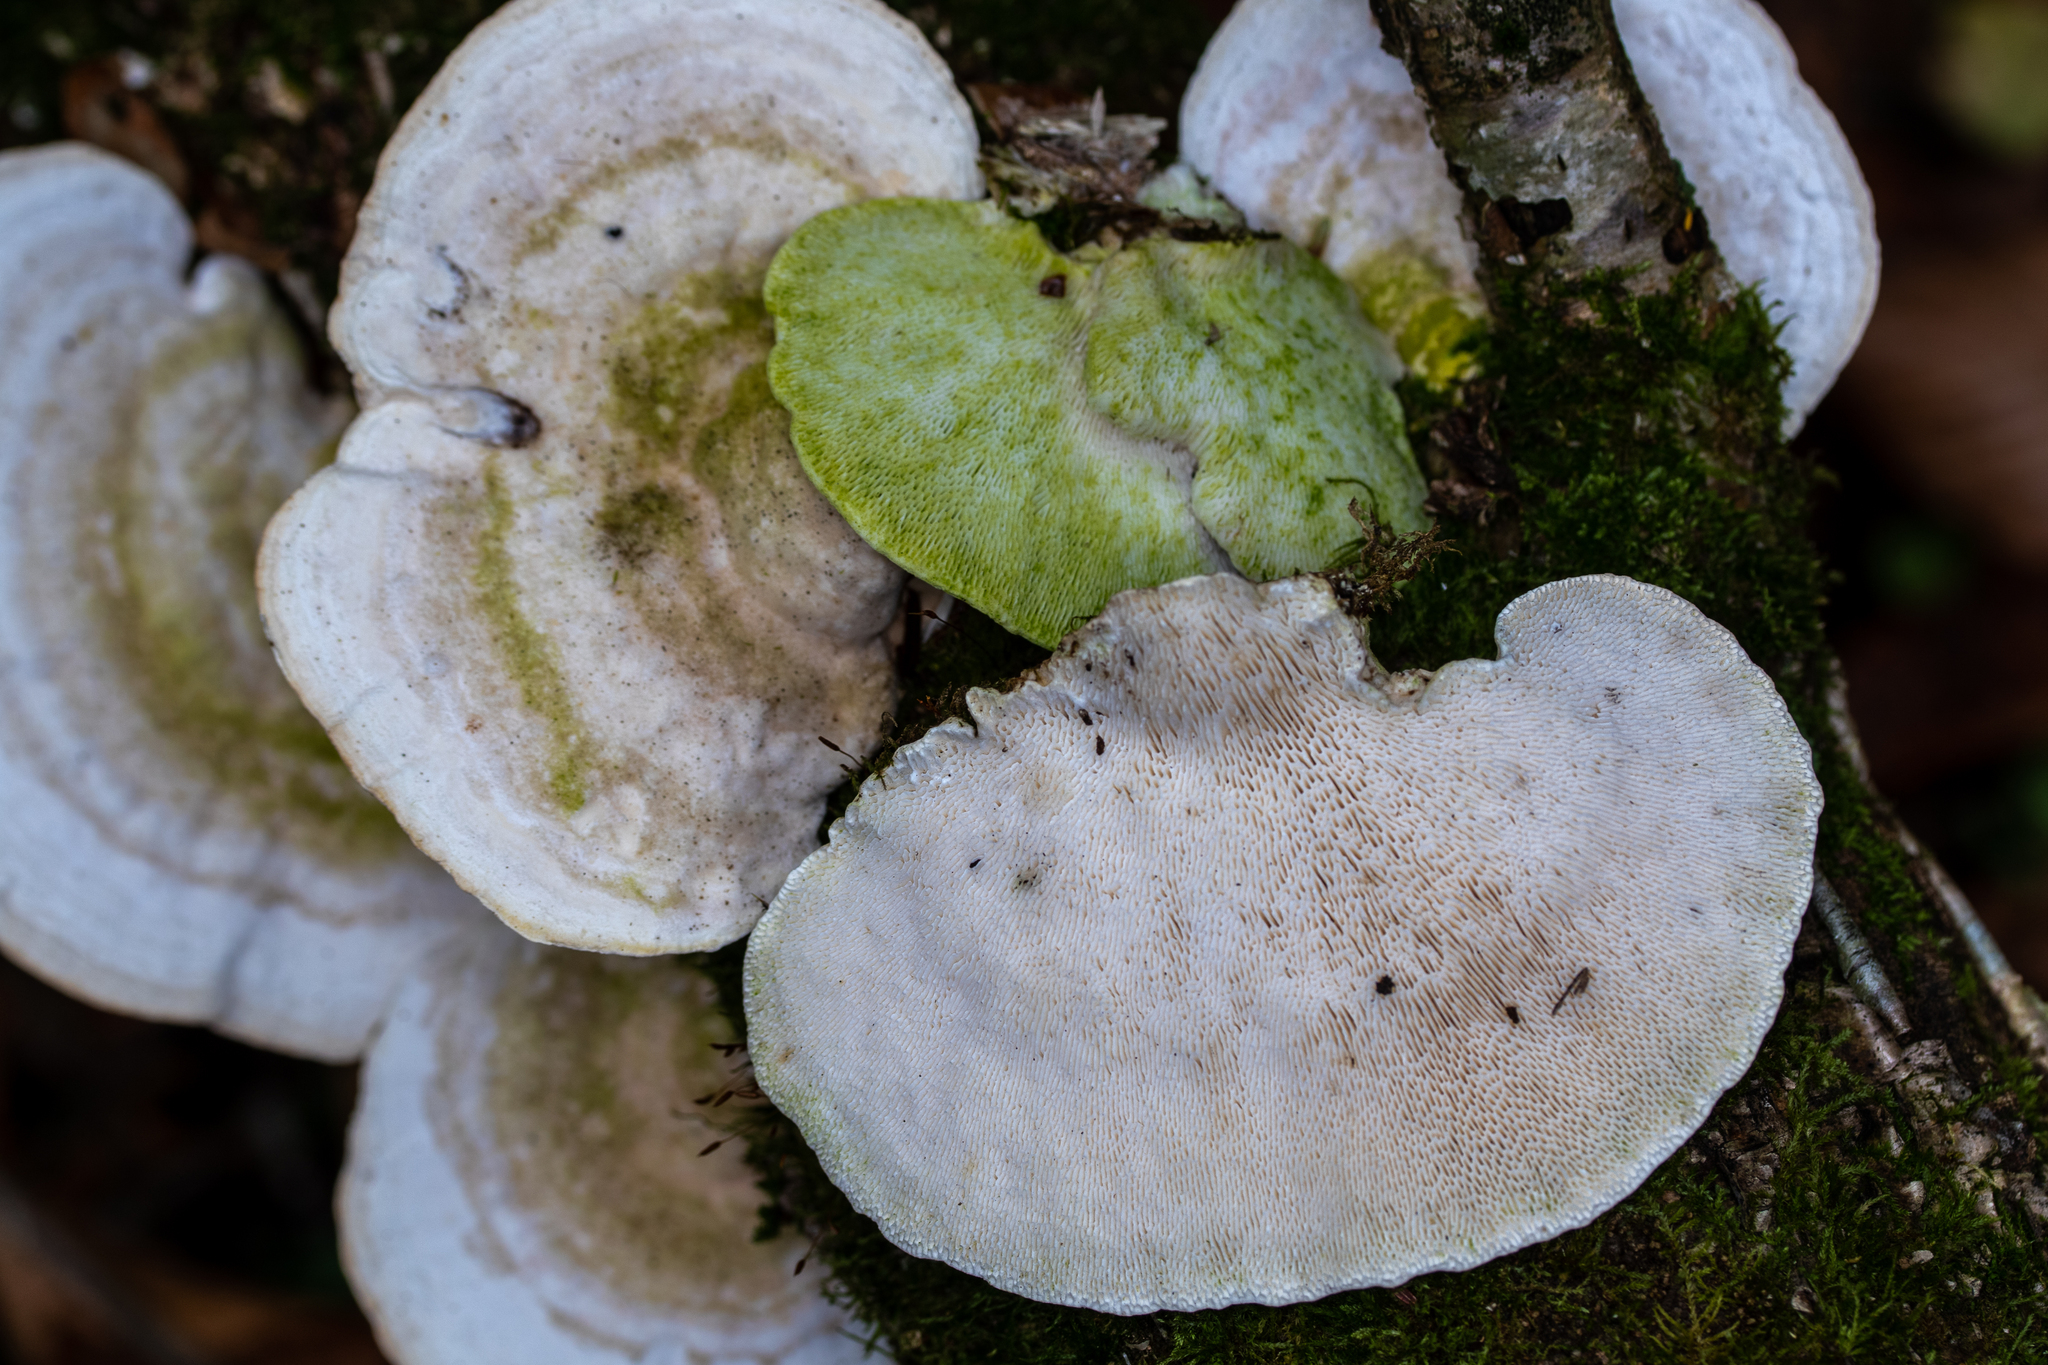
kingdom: Fungi
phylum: Basidiomycota
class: Agaricomycetes
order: Polyporales
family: Polyporaceae
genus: Trametes
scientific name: Trametes
